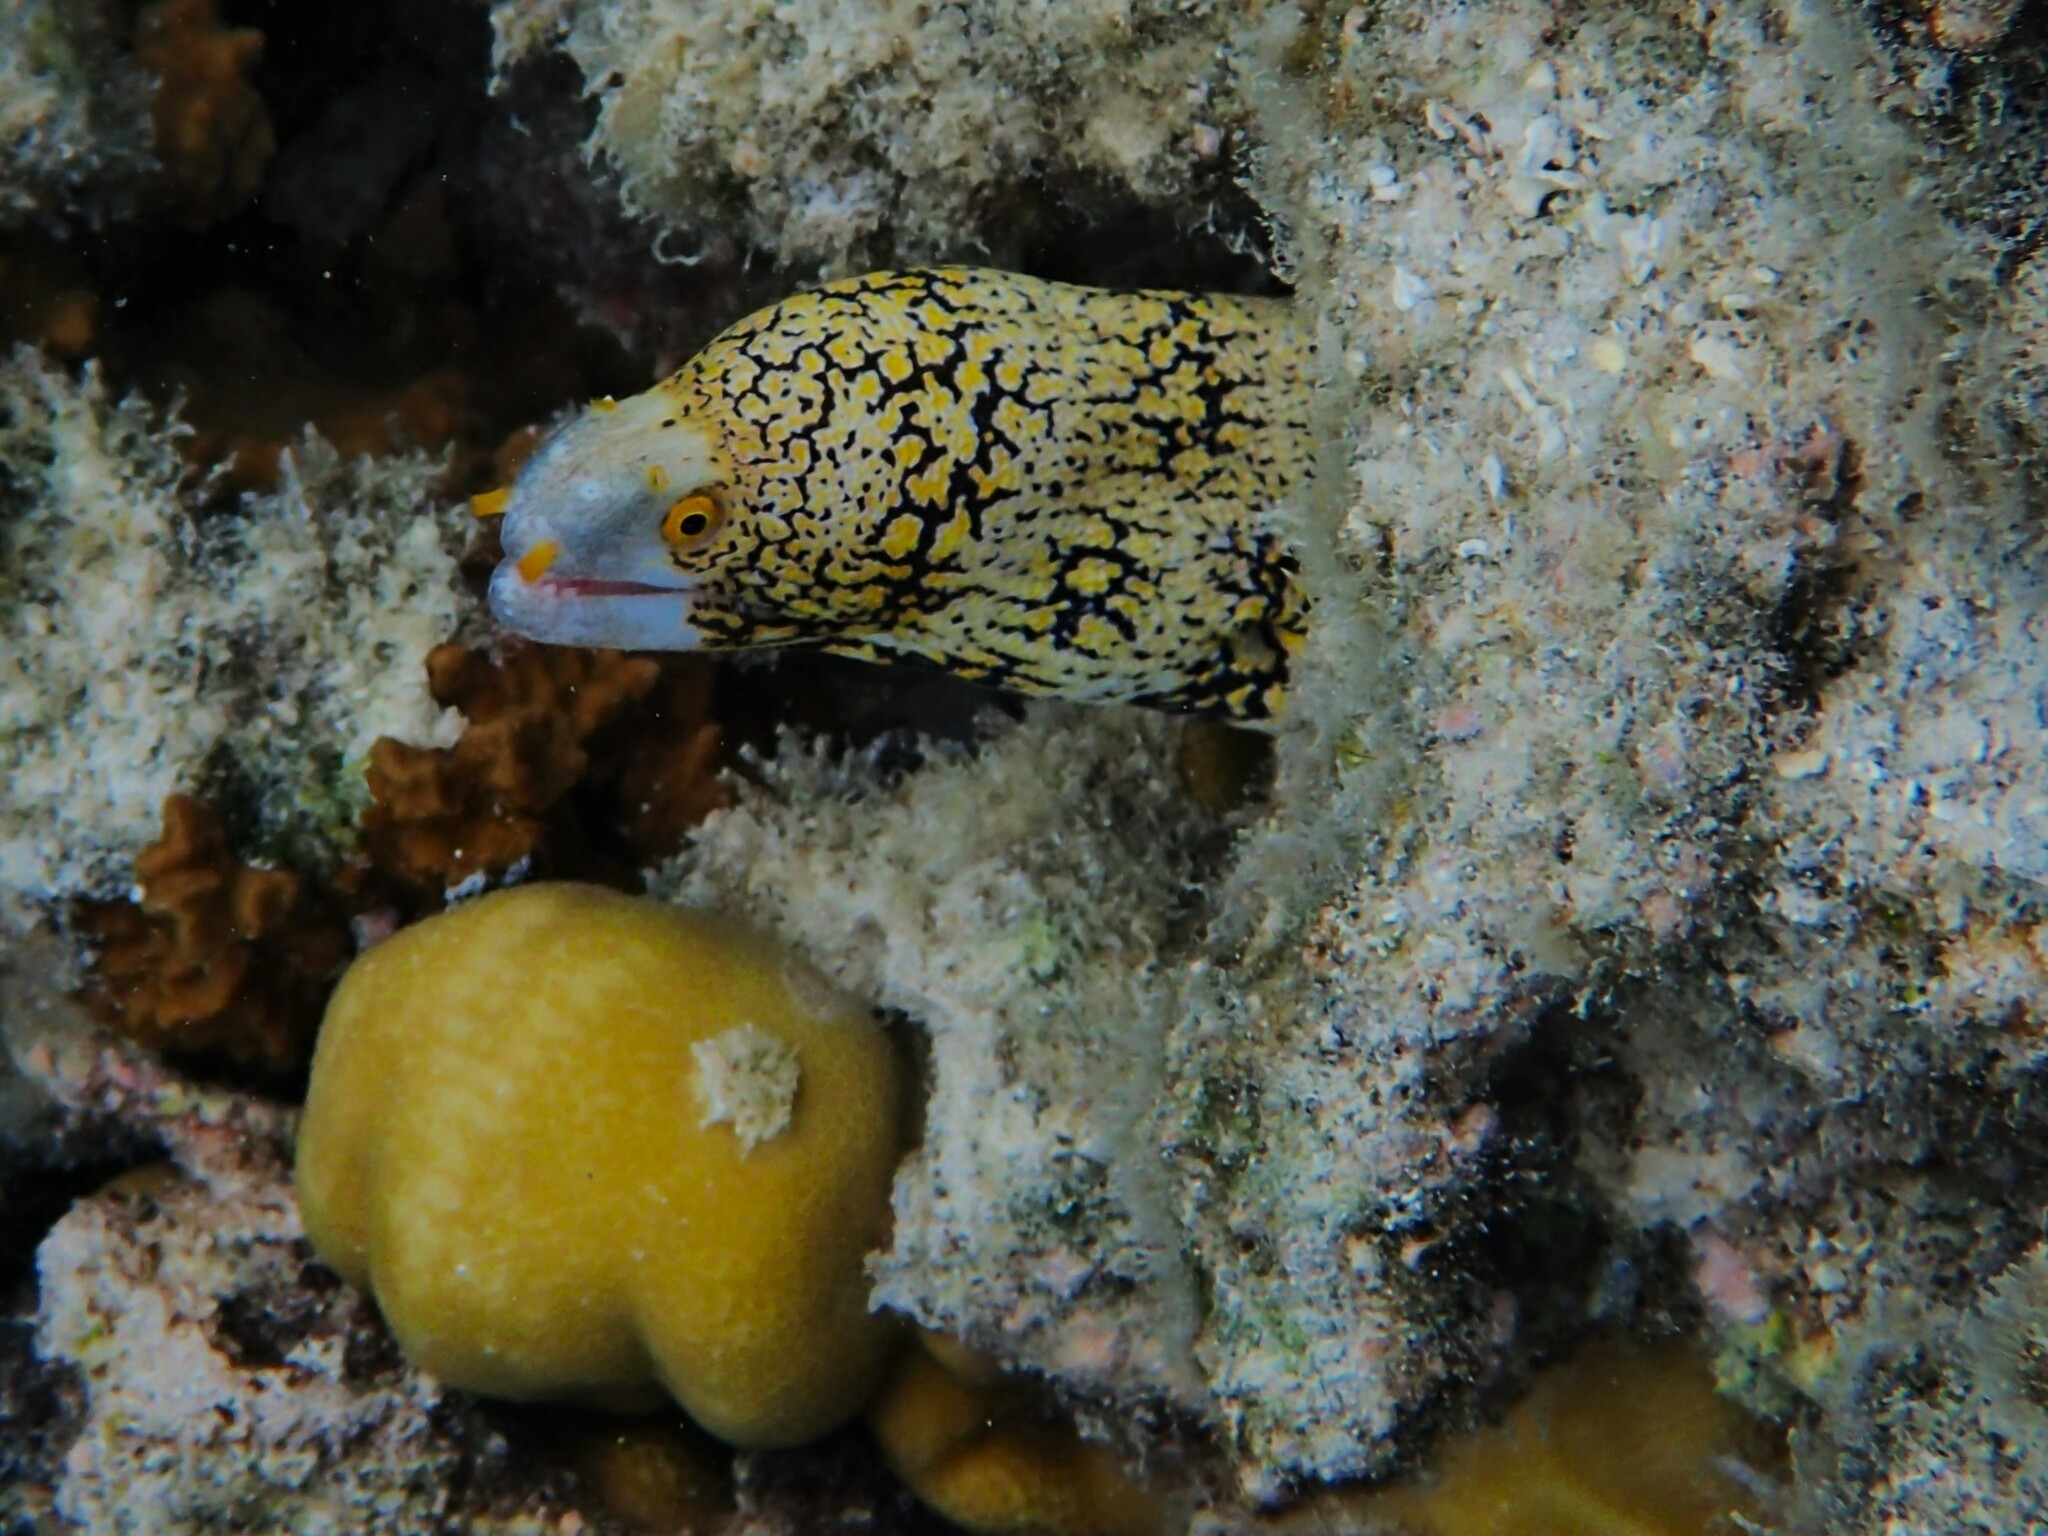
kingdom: Animalia
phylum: Chordata
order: Anguilliformes
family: Muraenidae
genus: Echidna
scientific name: Echidna nebulosa
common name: Snowflake moray
